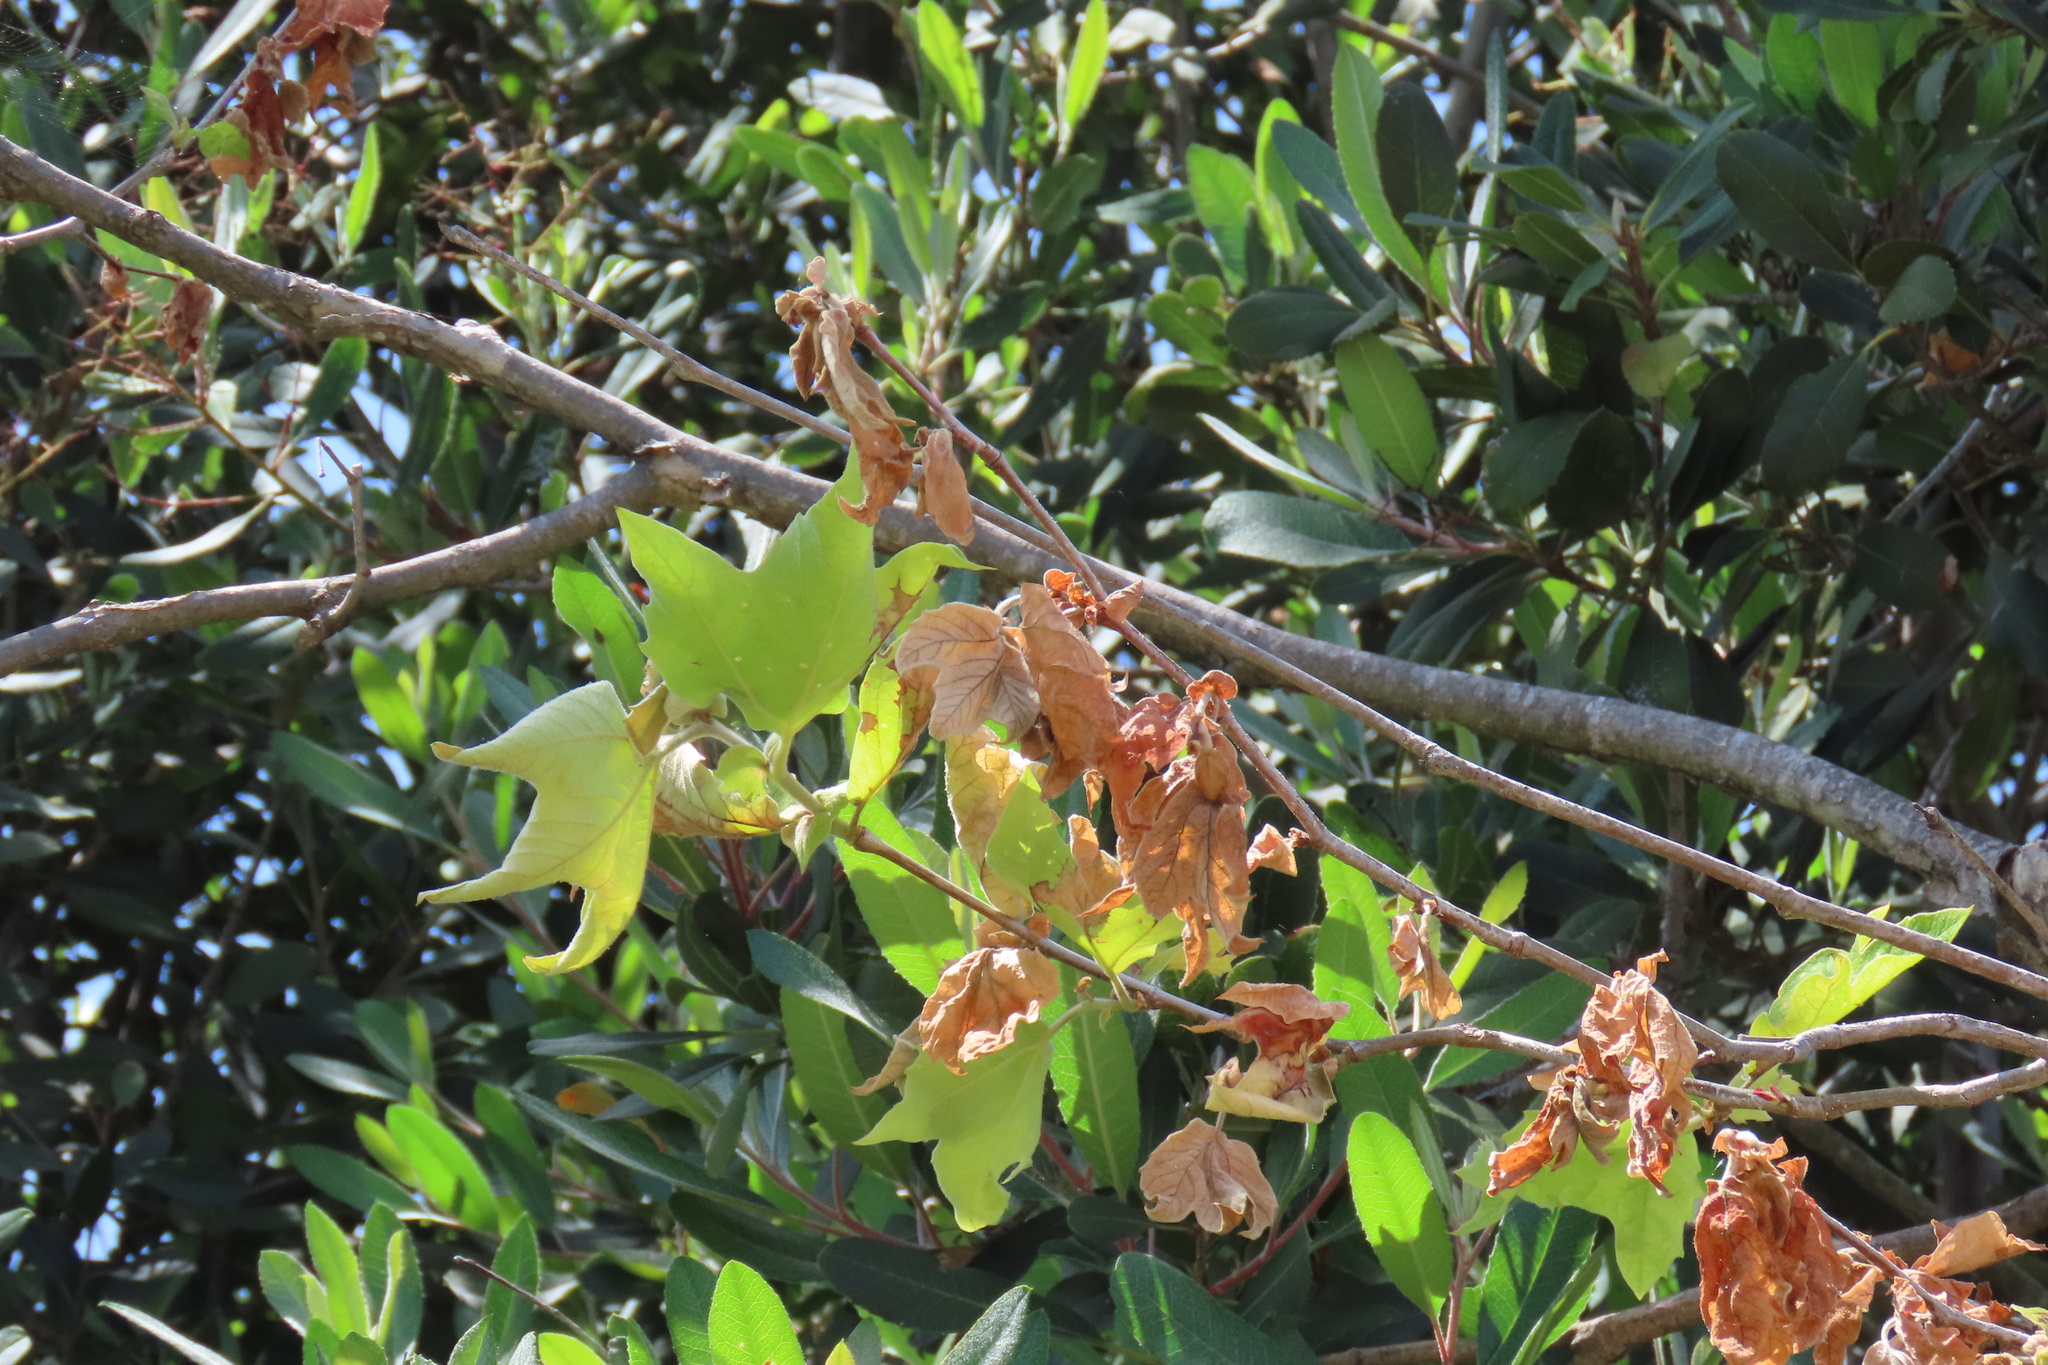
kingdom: Plantae
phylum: Tracheophyta
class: Magnoliopsida
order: Proteales
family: Platanaceae
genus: Platanus
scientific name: Platanus racemosa
